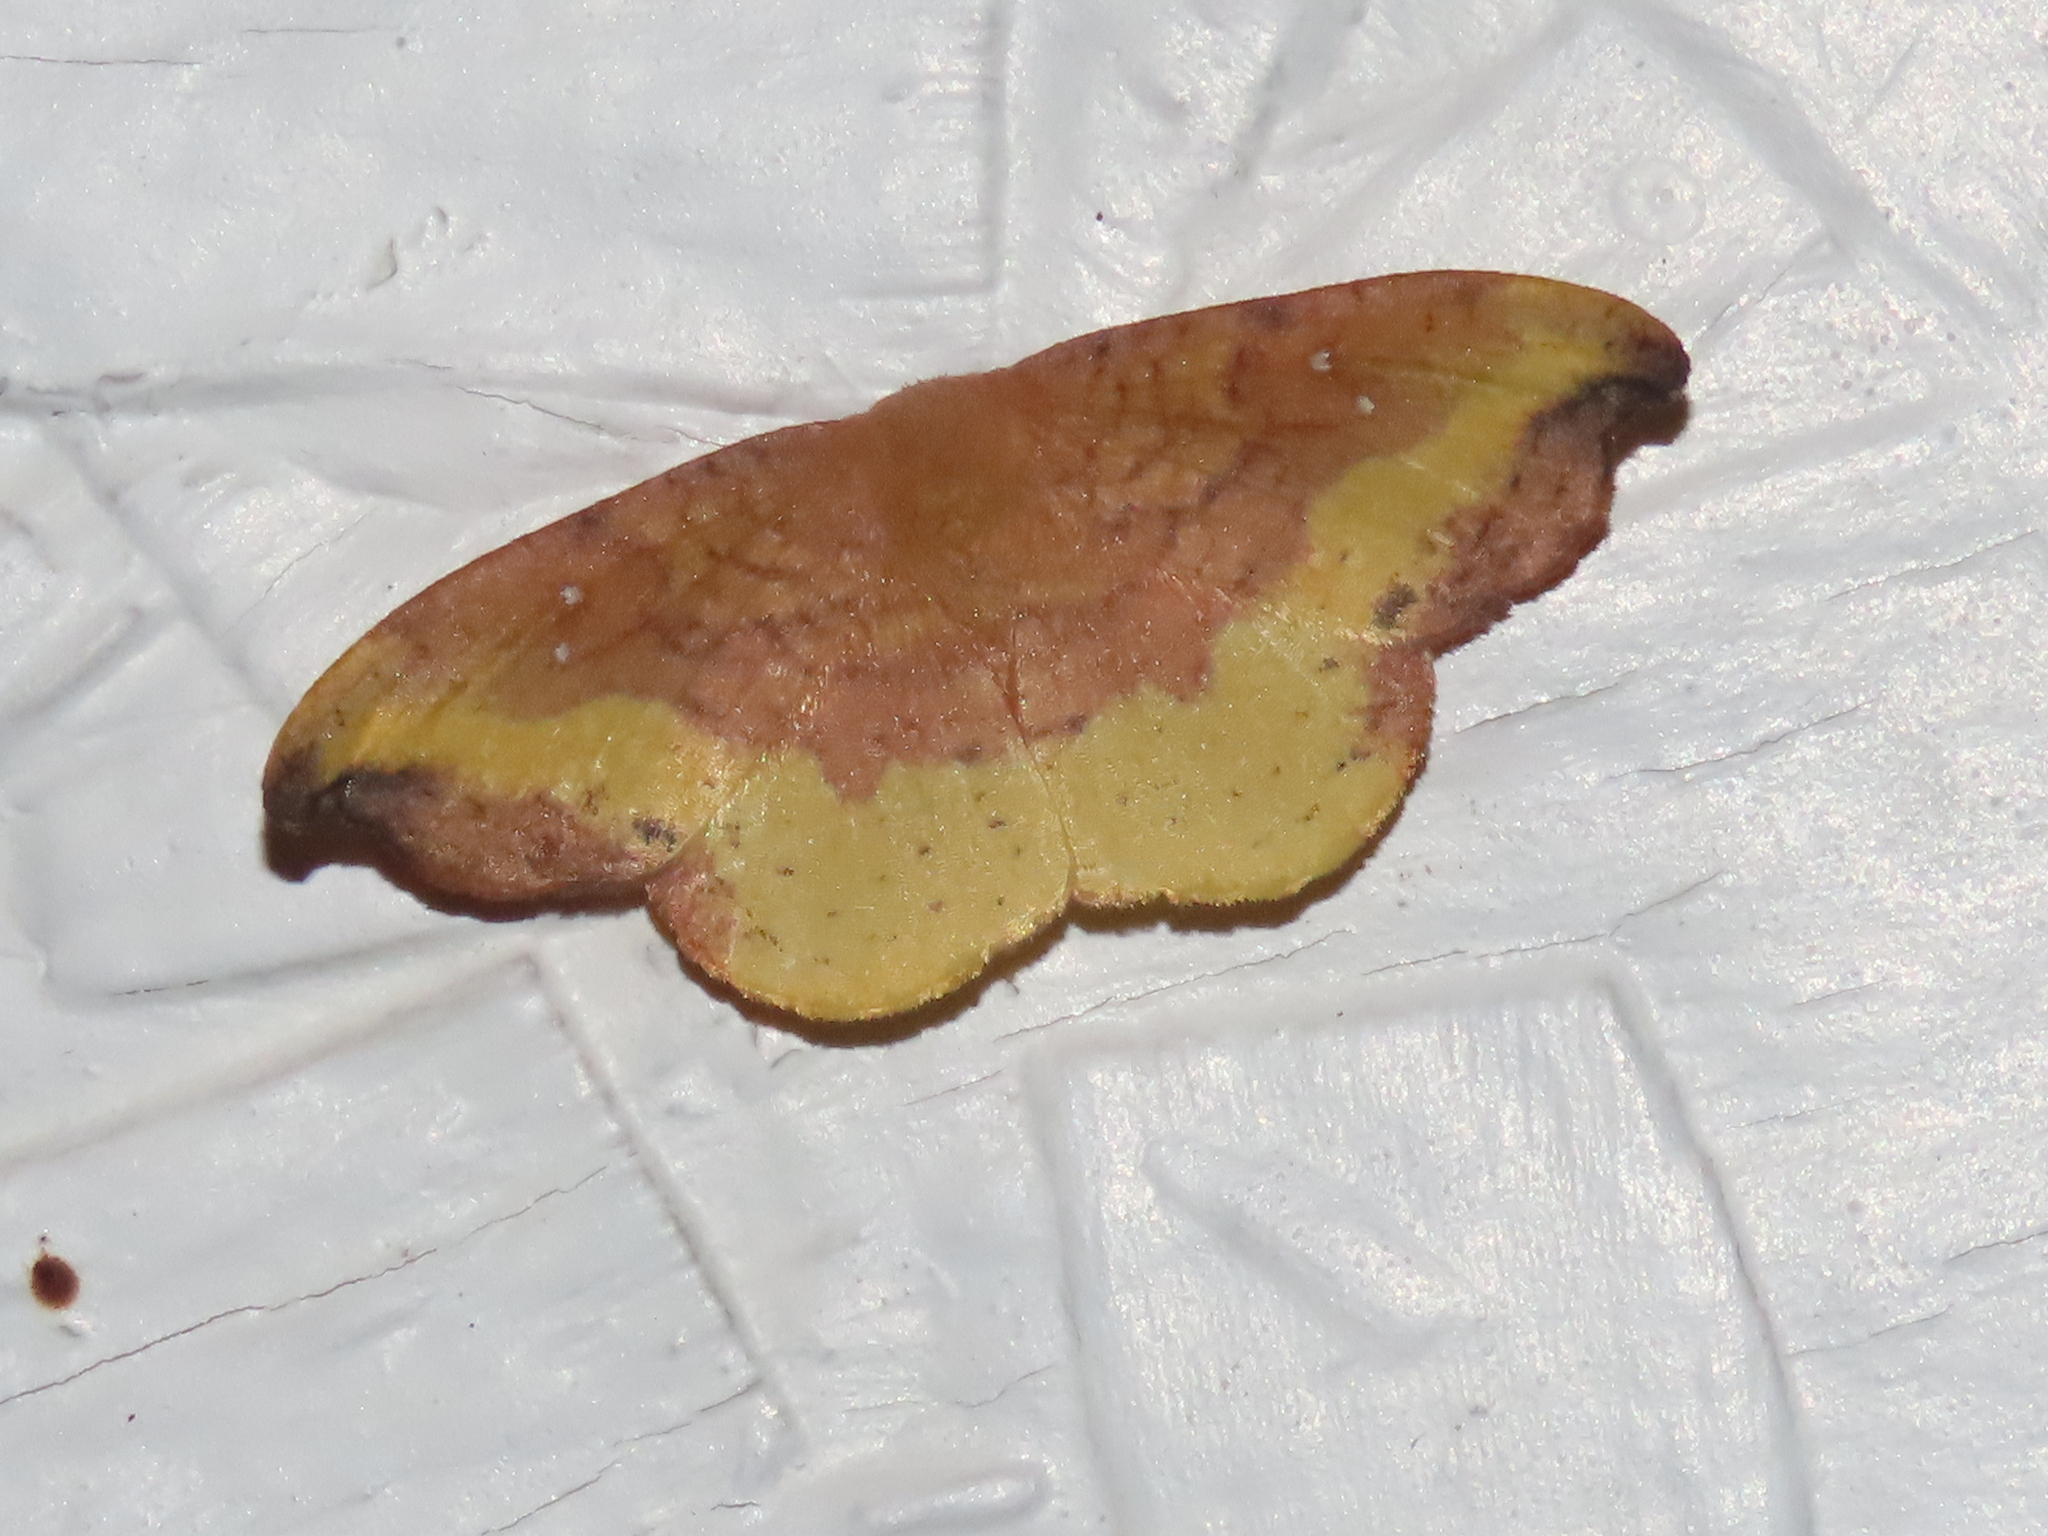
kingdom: Animalia
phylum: Arthropoda
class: Insecta
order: Lepidoptera
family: Drepanidae
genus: Oreta
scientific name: Oreta rosea
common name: Rose hooktip
